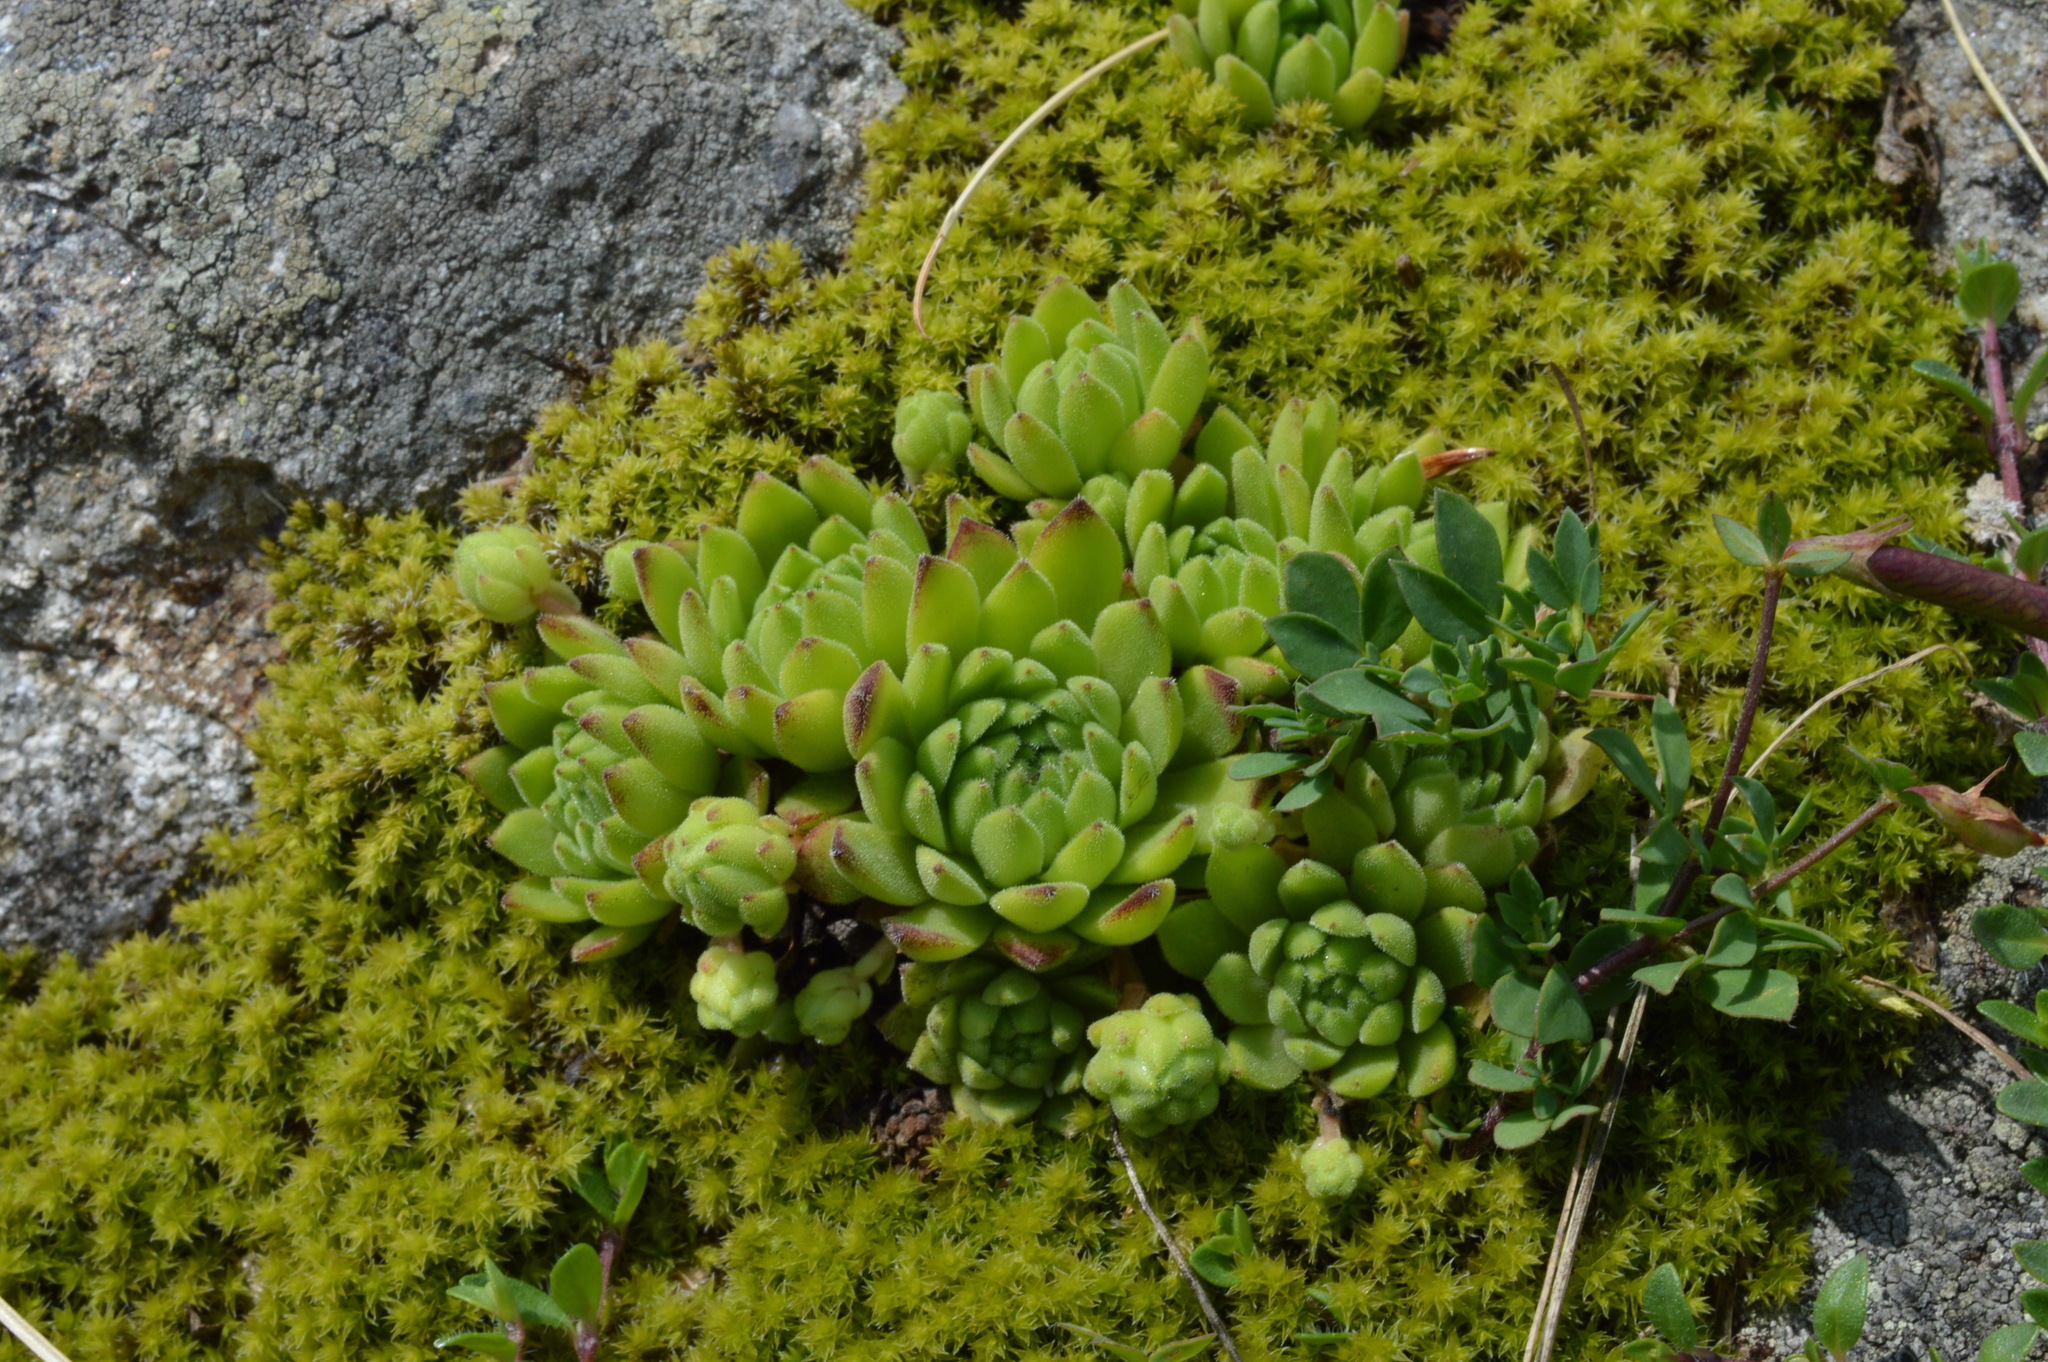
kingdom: Plantae
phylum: Tracheophyta
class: Magnoliopsida
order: Saxifragales
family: Crassulaceae
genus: Sempervivum
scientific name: Sempervivum montanum
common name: Mountain house-leek
